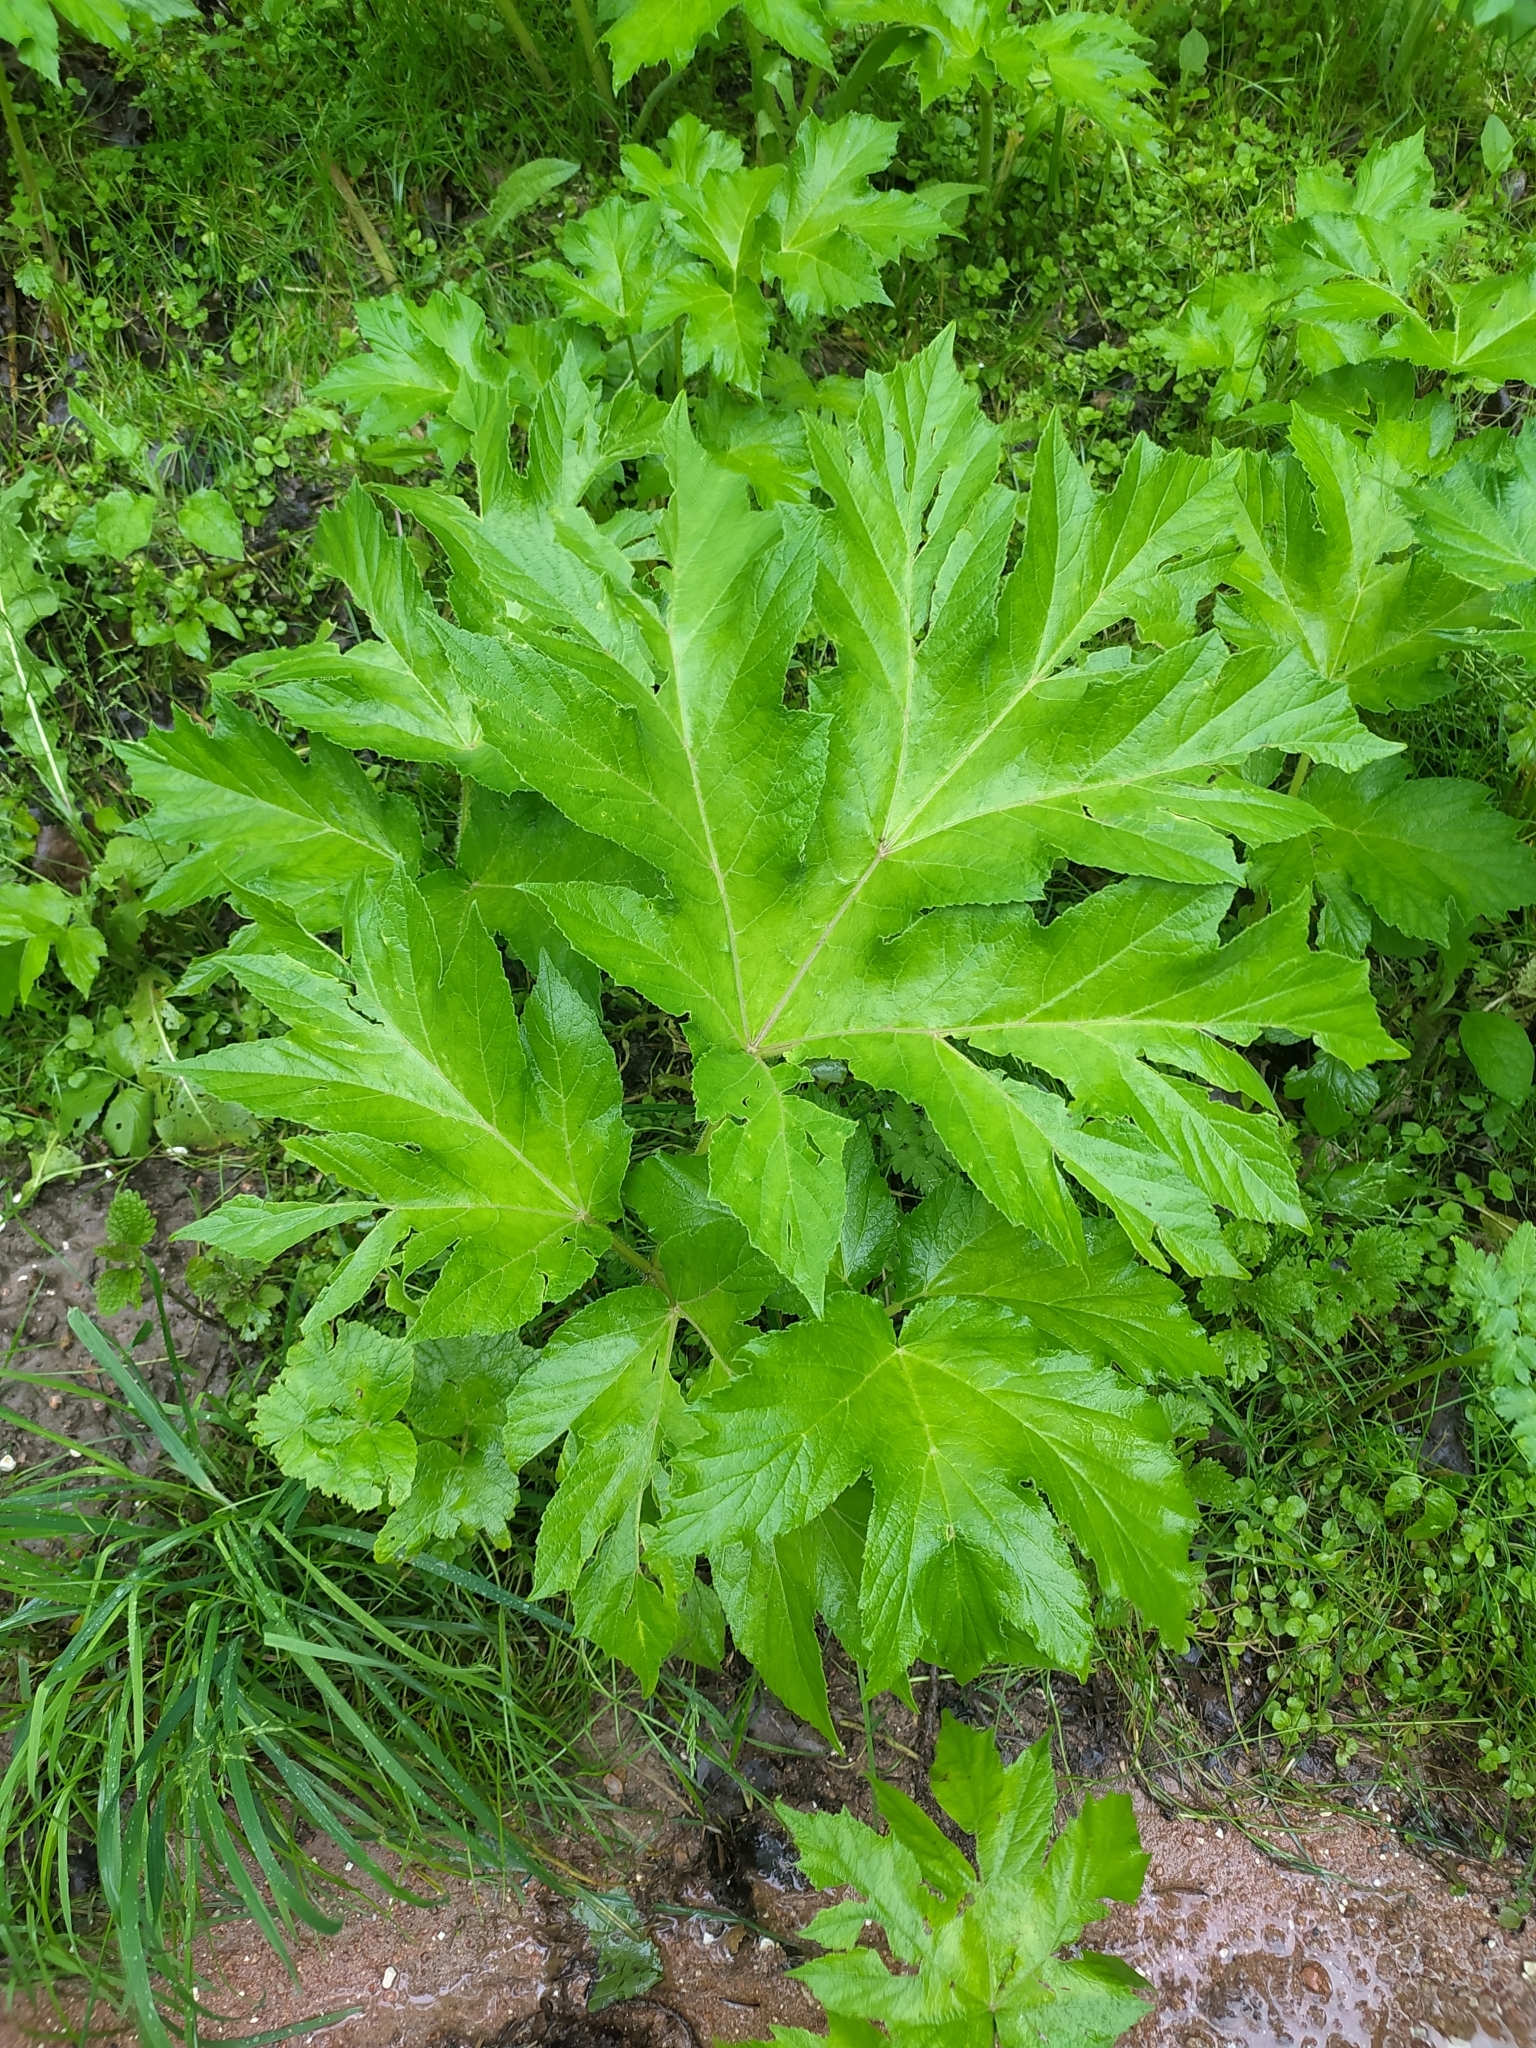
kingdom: Plantae
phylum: Tracheophyta
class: Magnoliopsida
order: Apiales
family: Apiaceae
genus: Heracleum
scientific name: Heracleum sosnowskyi
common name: Sosnowsky's hogweed
